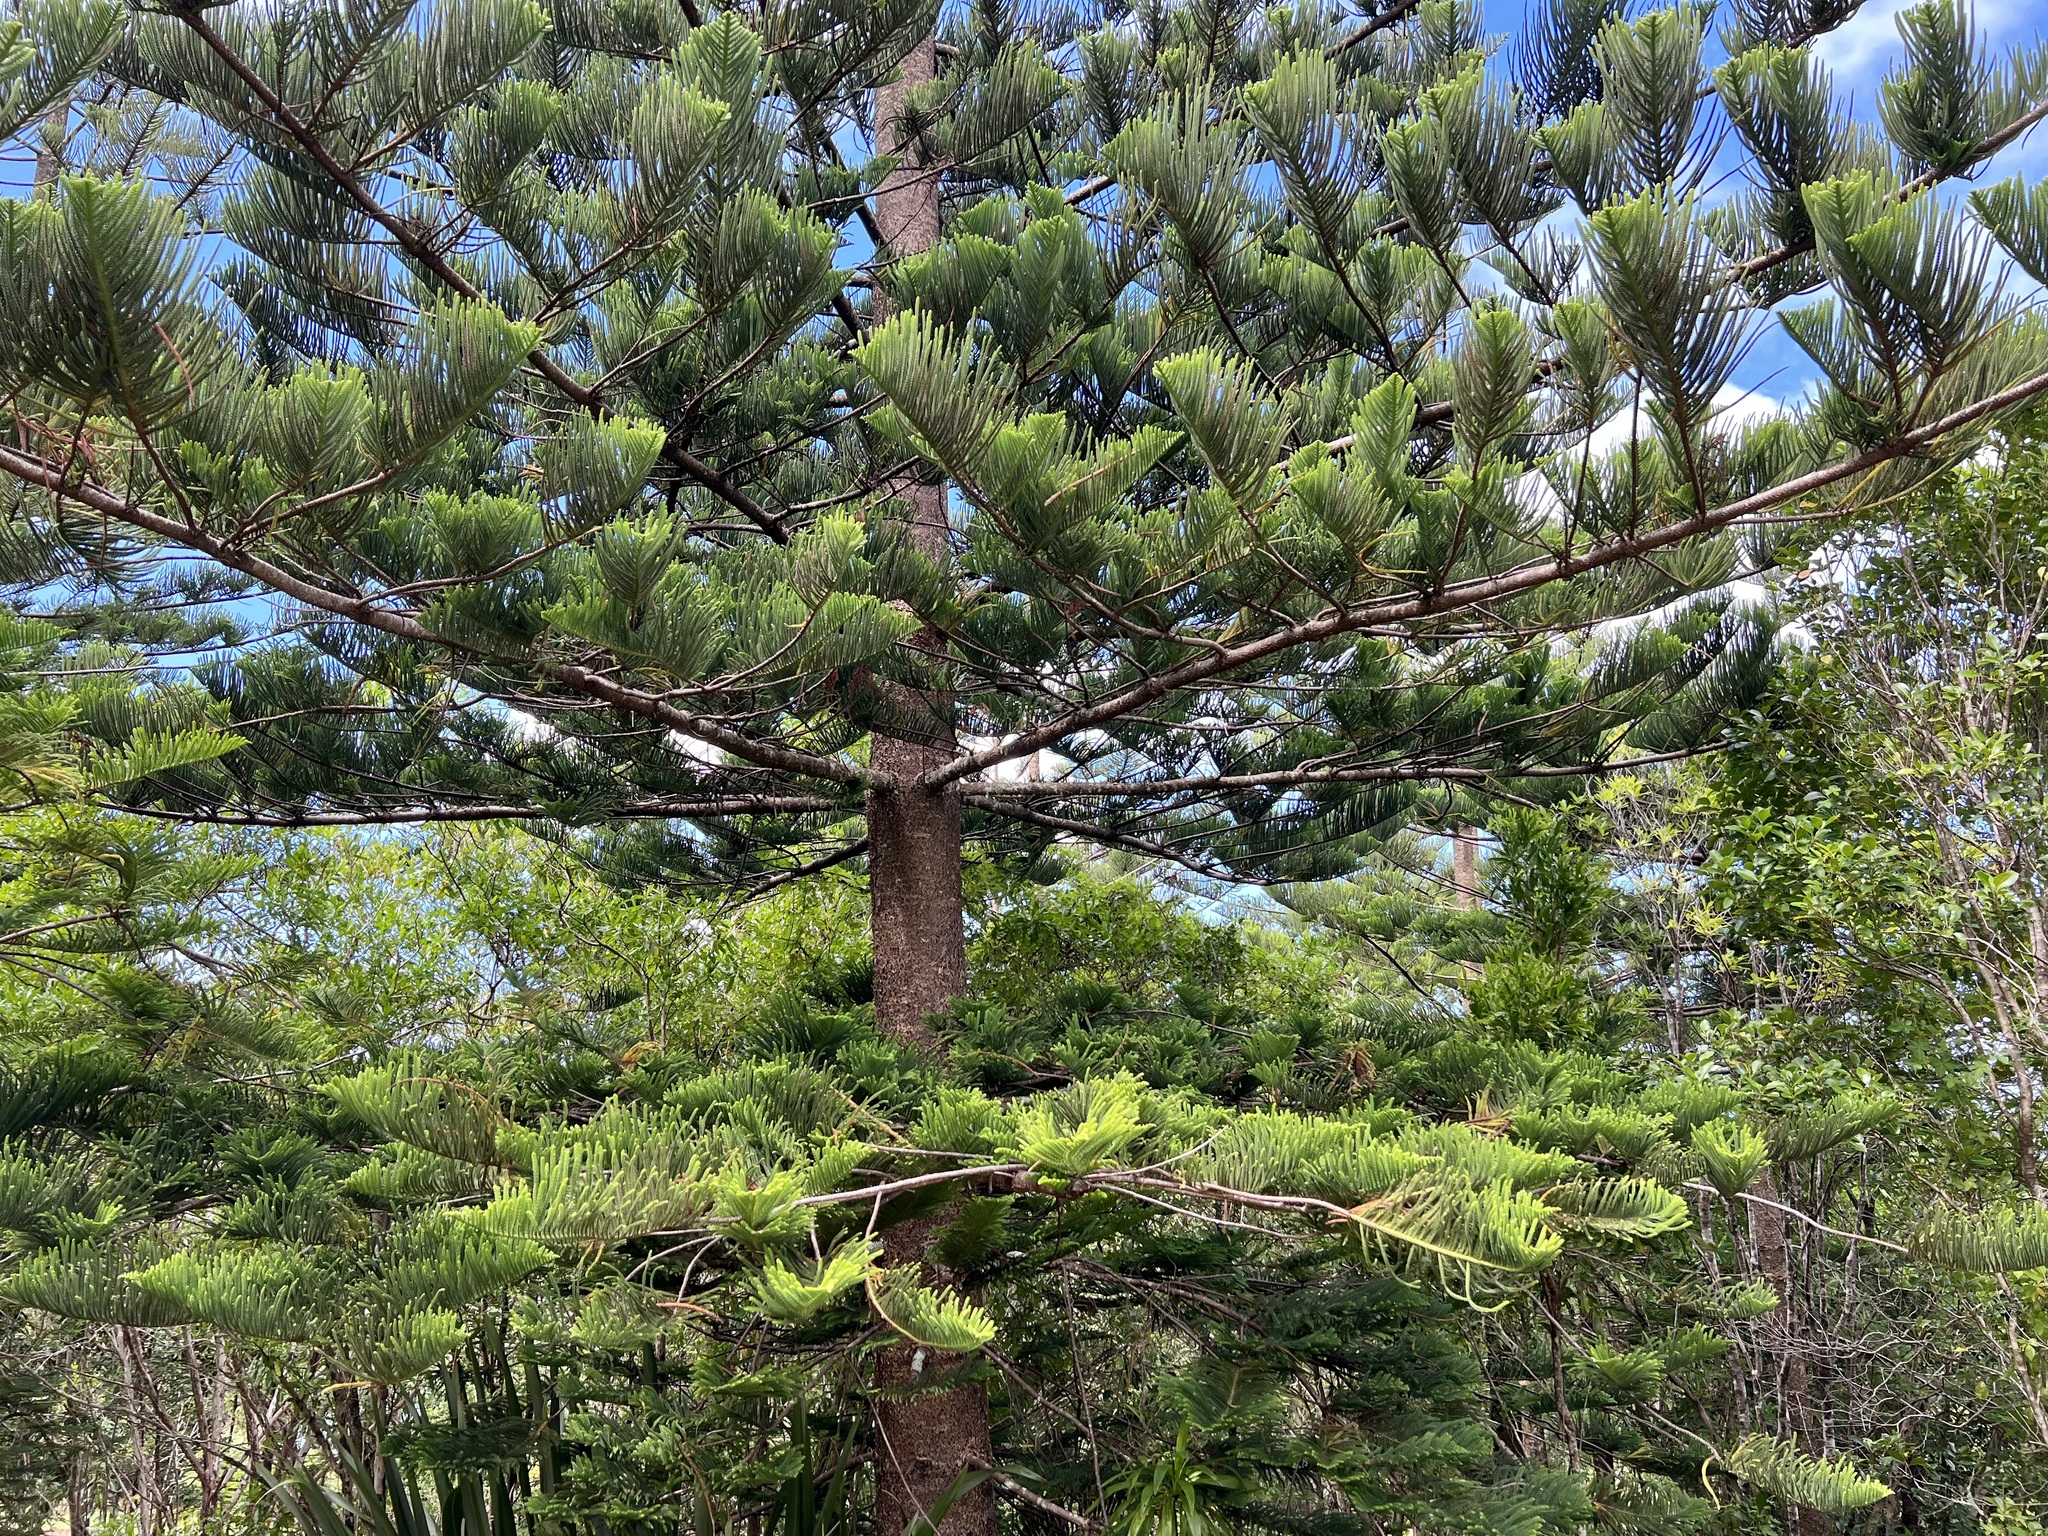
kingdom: Plantae
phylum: Tracheophyta
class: Pinopsida
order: Pinales
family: Araucariaceae
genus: Araucaria
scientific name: Araucaria heterophylla
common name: Norfolk island pine
